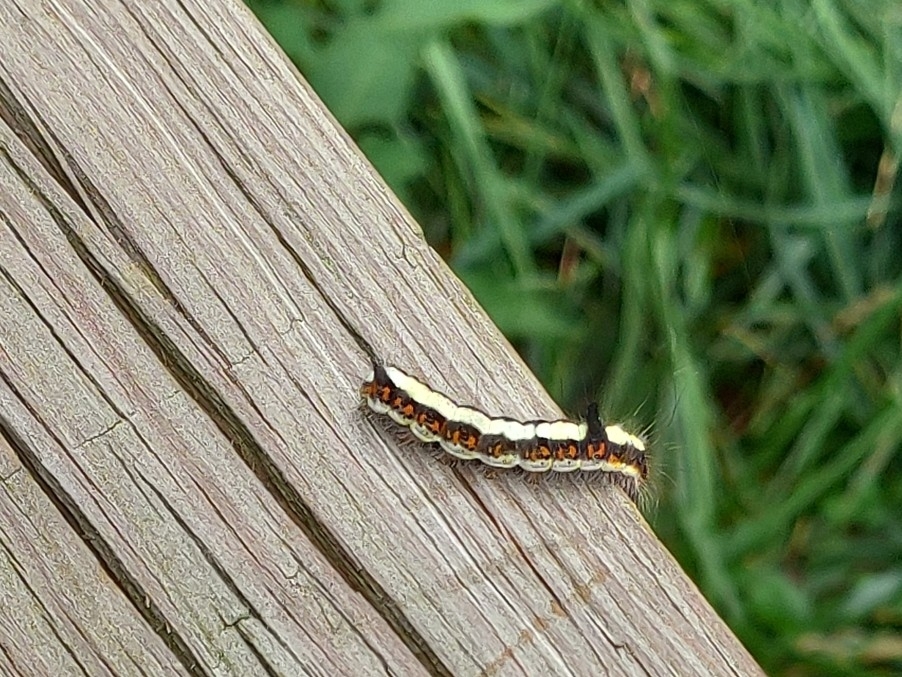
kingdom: Animalia
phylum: Arthropoda
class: Insecta
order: Lepidoptera
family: Noctuidae
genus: Acronicta
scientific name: Acronicta psi
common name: Grey dagger
